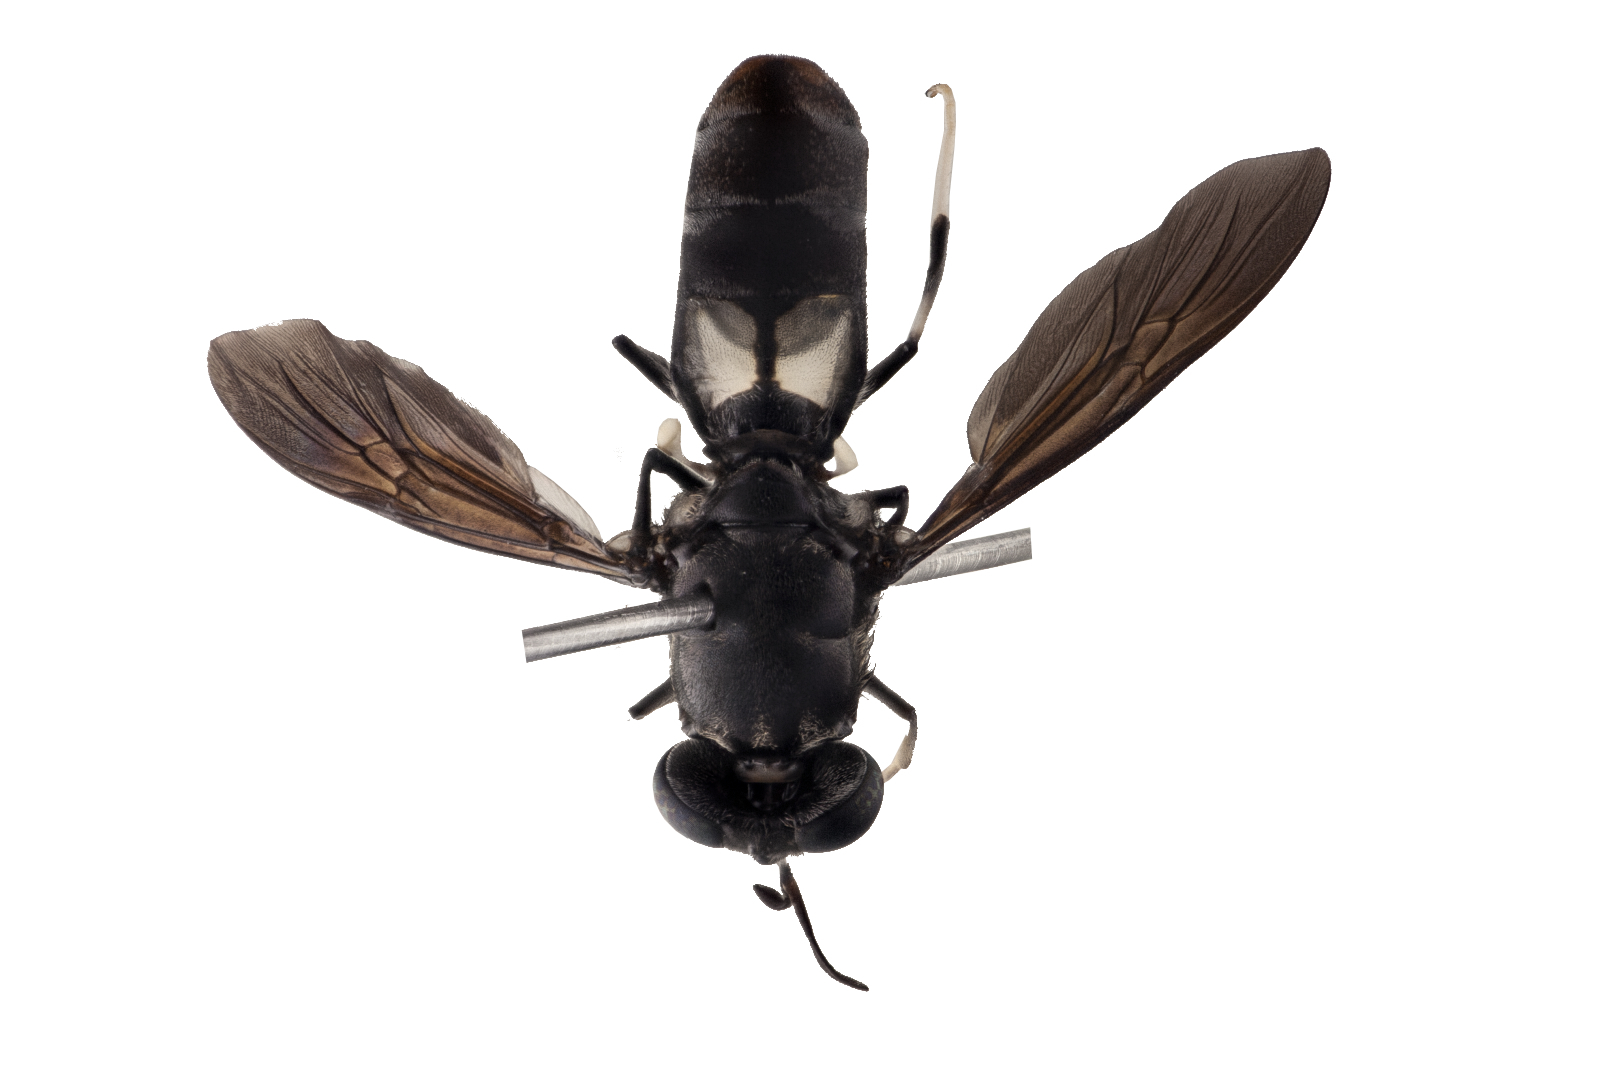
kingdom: Animalia
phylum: Arthropoda
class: Insecta
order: Diptera
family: Stratiomyidae
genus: Hermetia
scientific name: Hermetia illucens
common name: Black soldier fly
